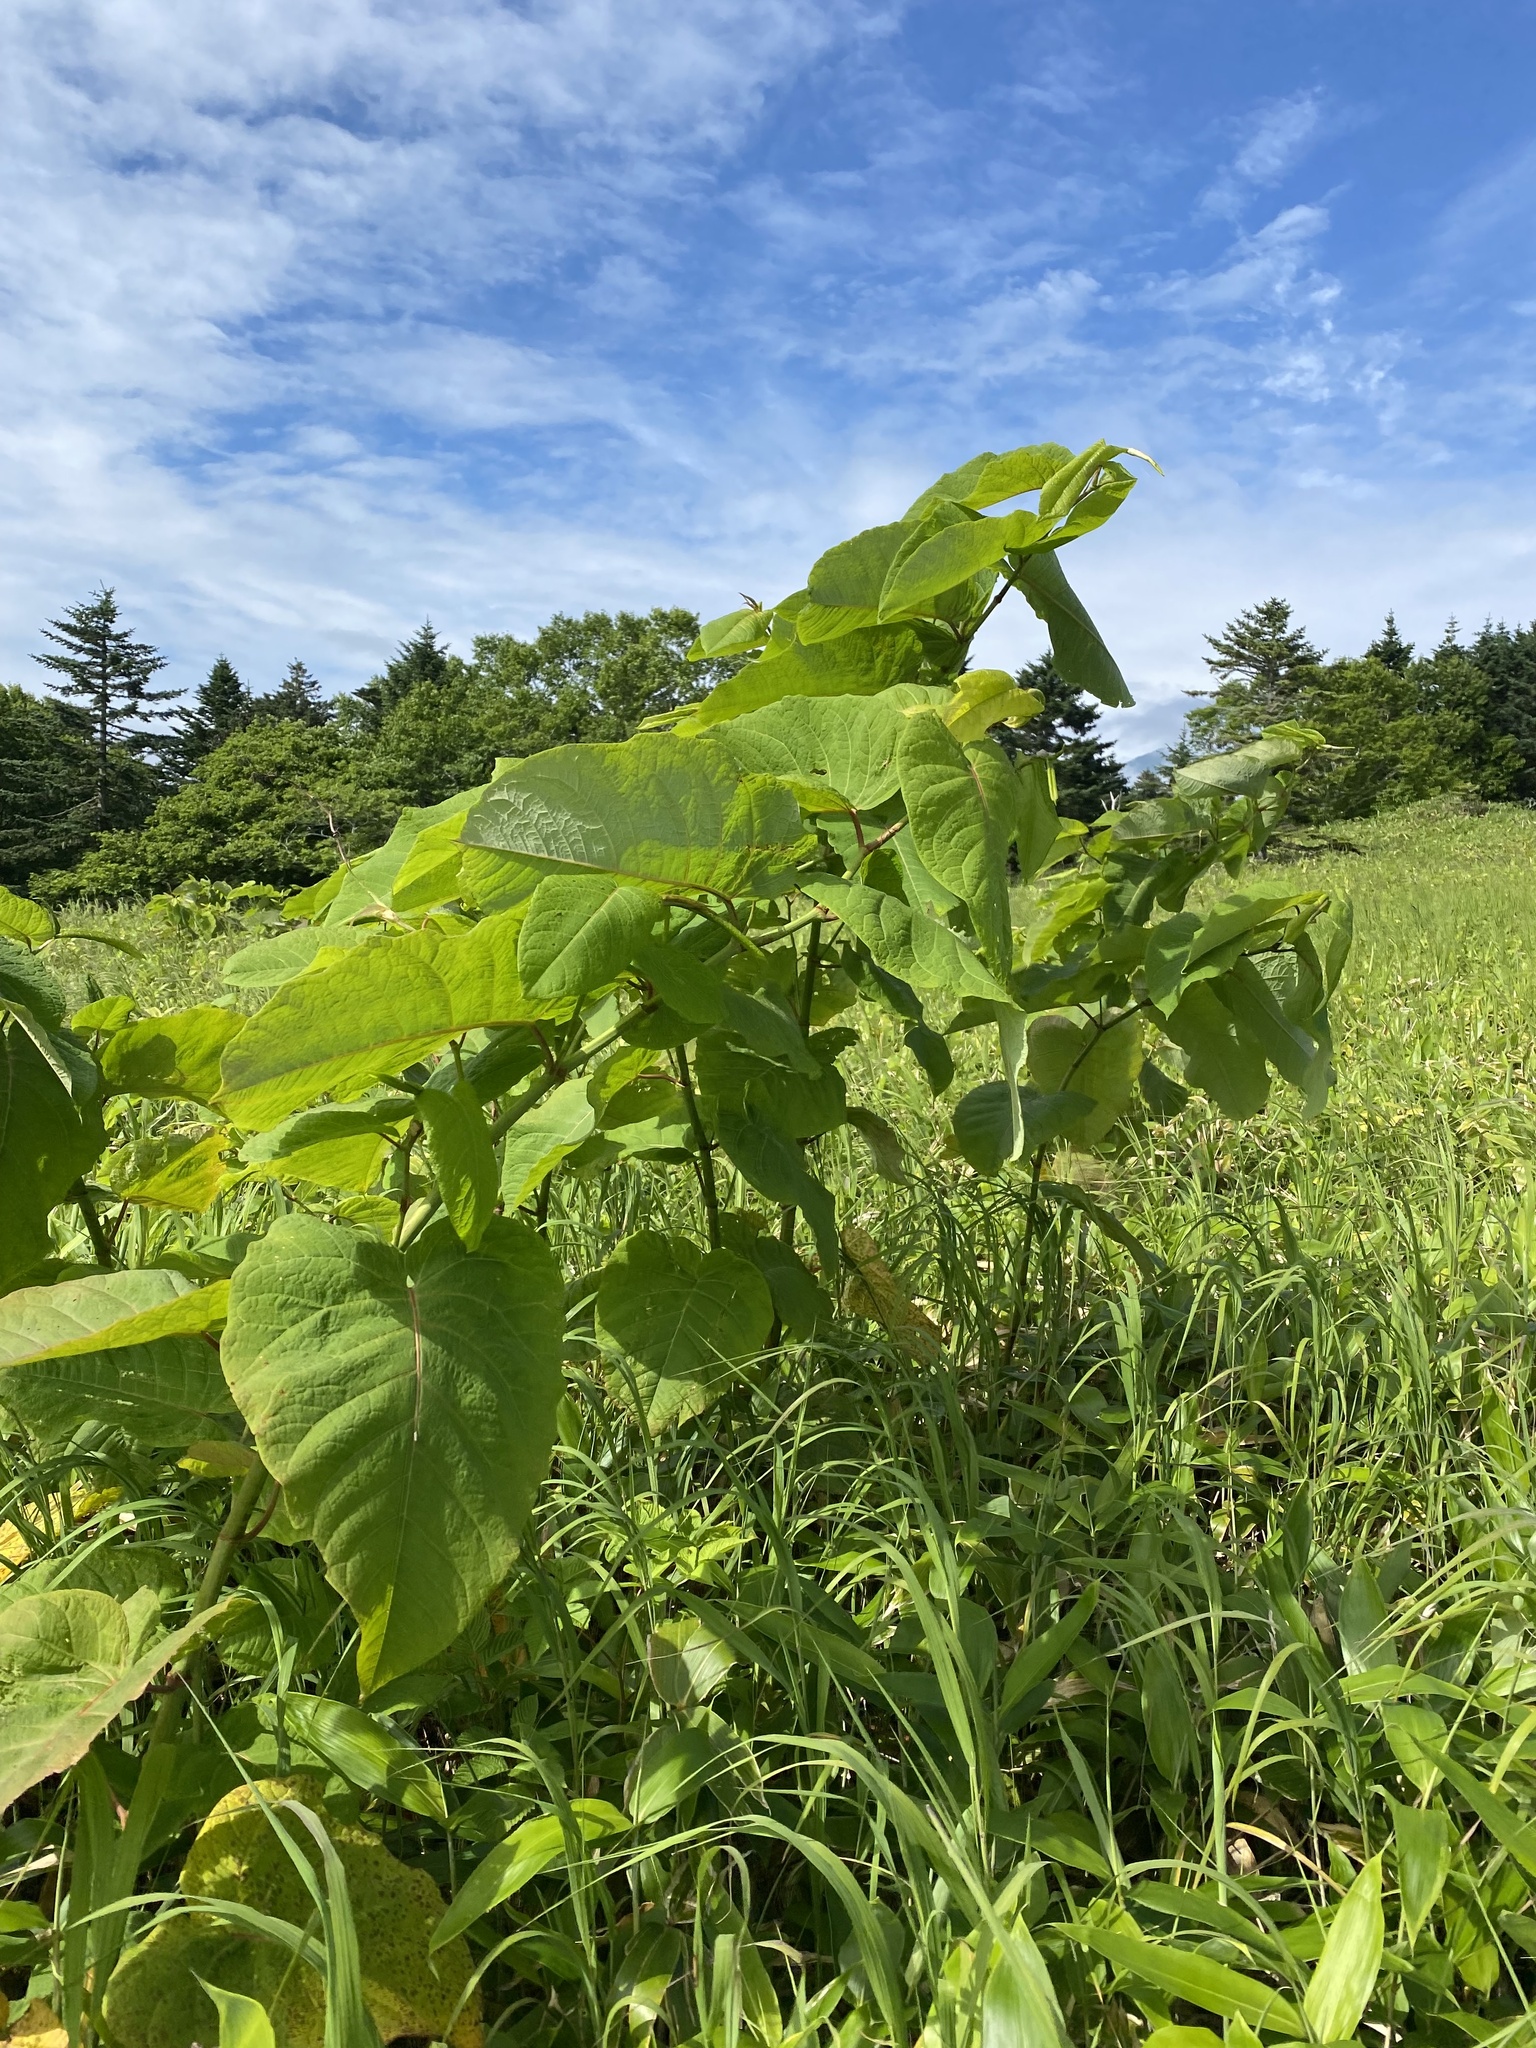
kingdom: Plantae
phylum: Tracheophyta
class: Magnoliopsida
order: Caryophyllales
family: Polygonaceae
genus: Reynoutria
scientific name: Reynoutria sachalinensis
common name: Giant knotweed
